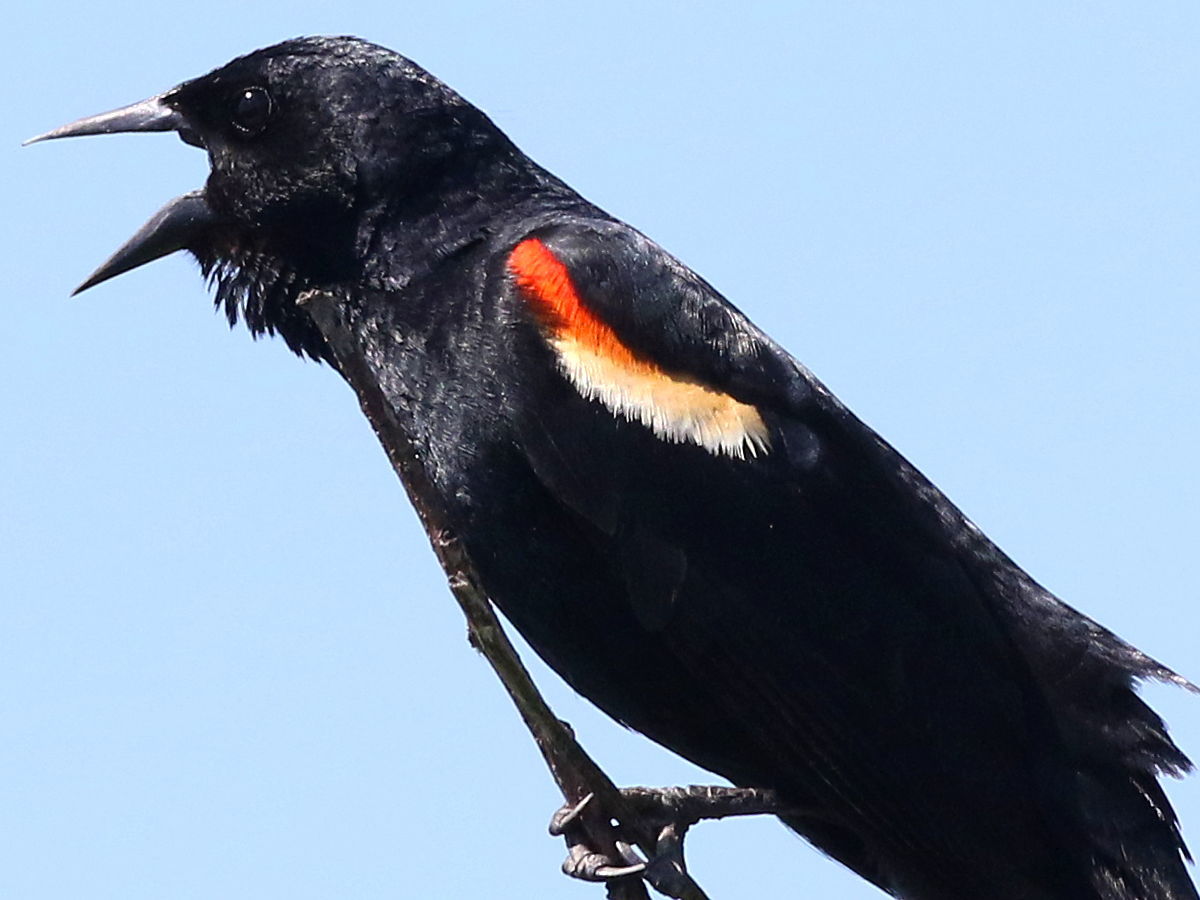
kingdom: Animalia
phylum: Chordata
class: Aves
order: Passeriformes
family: Icteridae
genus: Agelaius
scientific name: Agelaius phoeniceus
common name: Red-winged blackbird
